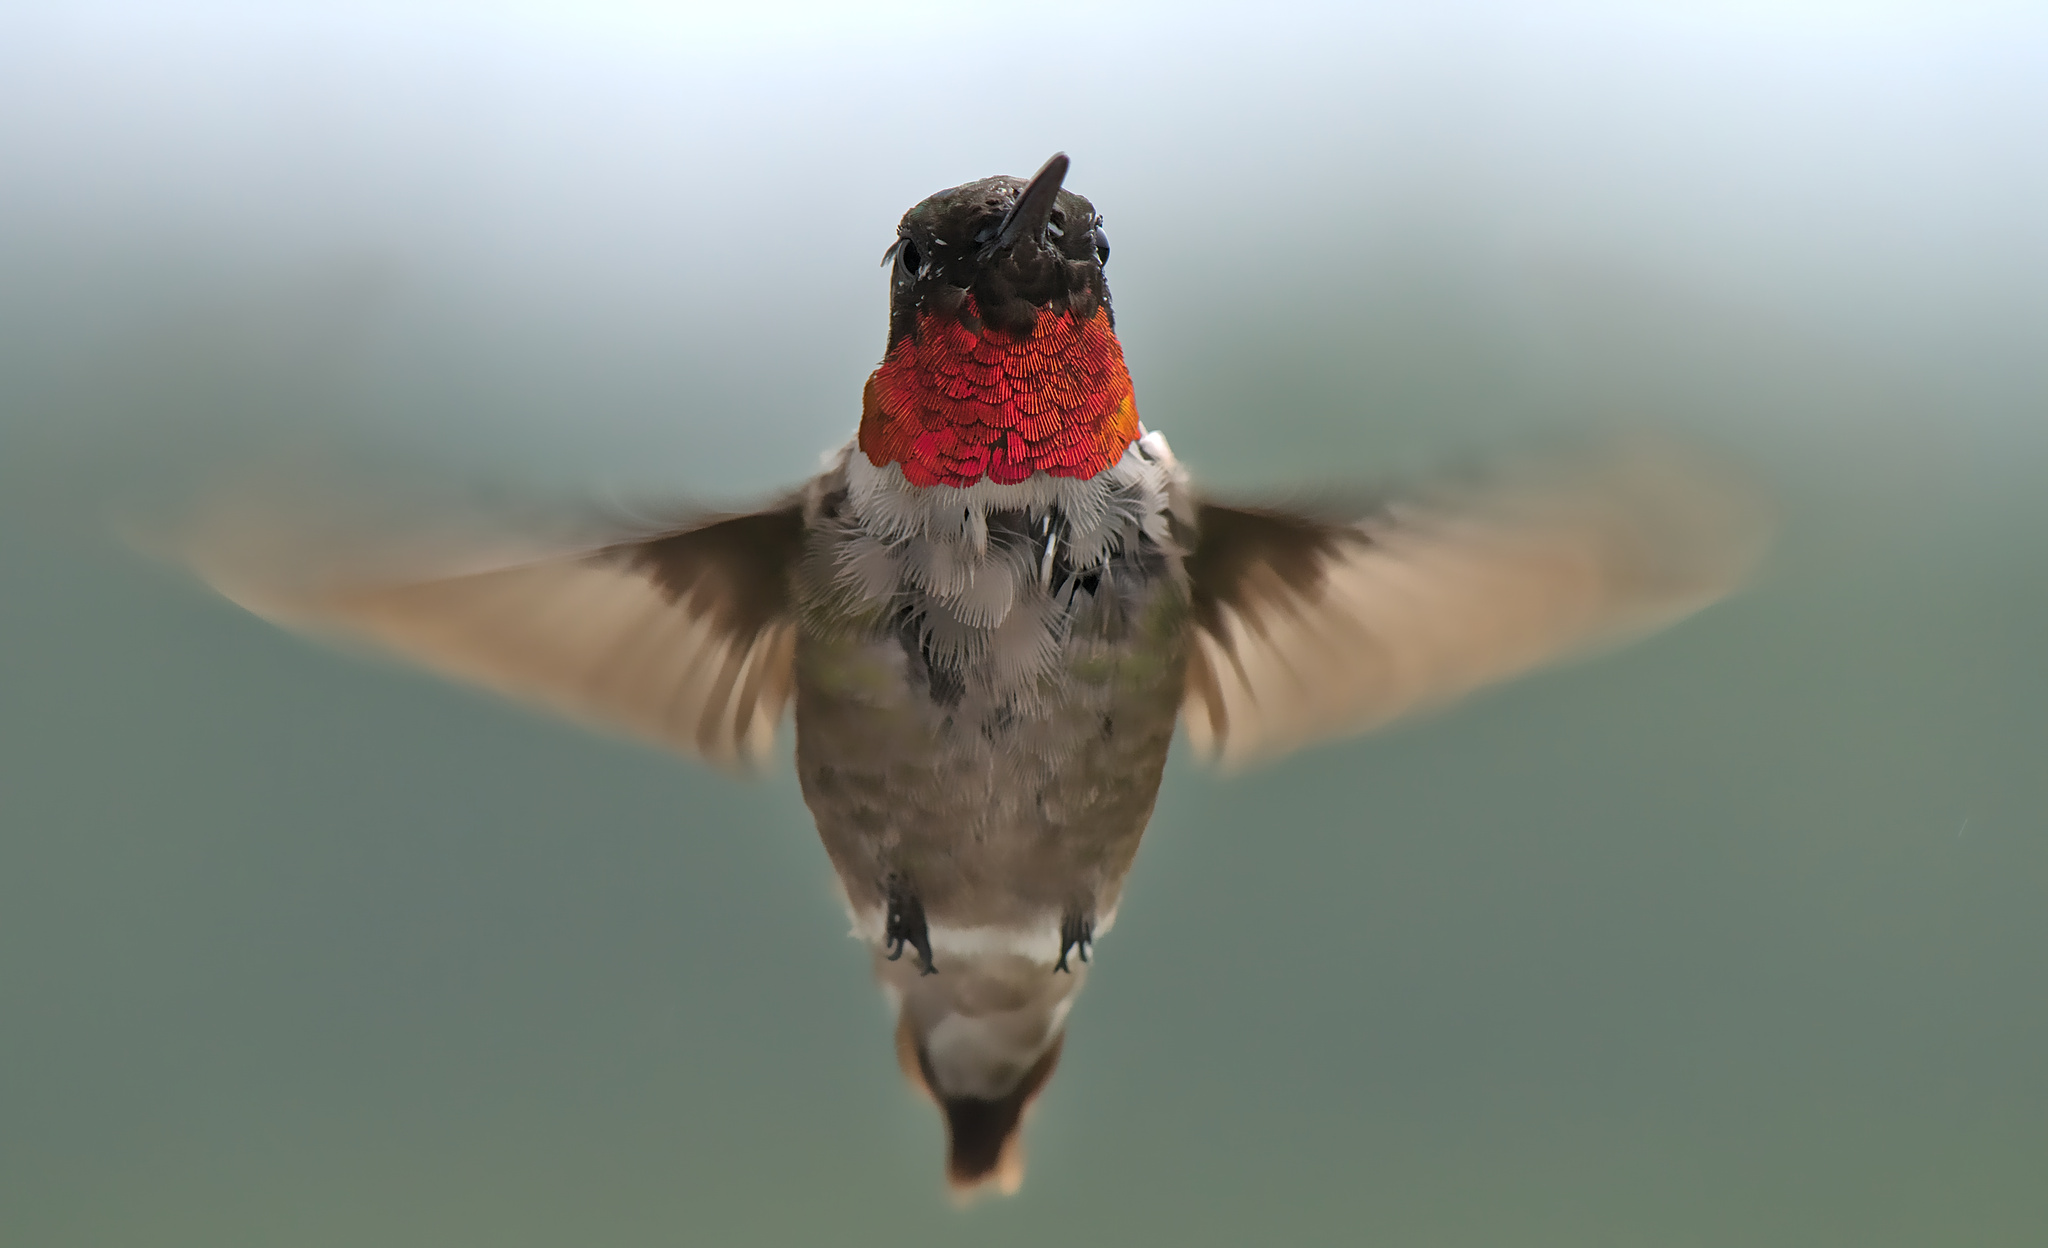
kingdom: Animalia
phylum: Chordata
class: Aves
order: Apodiformes
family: Trochilidae
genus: Archilochus
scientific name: Archilochus colubris
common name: Ruby-throated hummingbird
